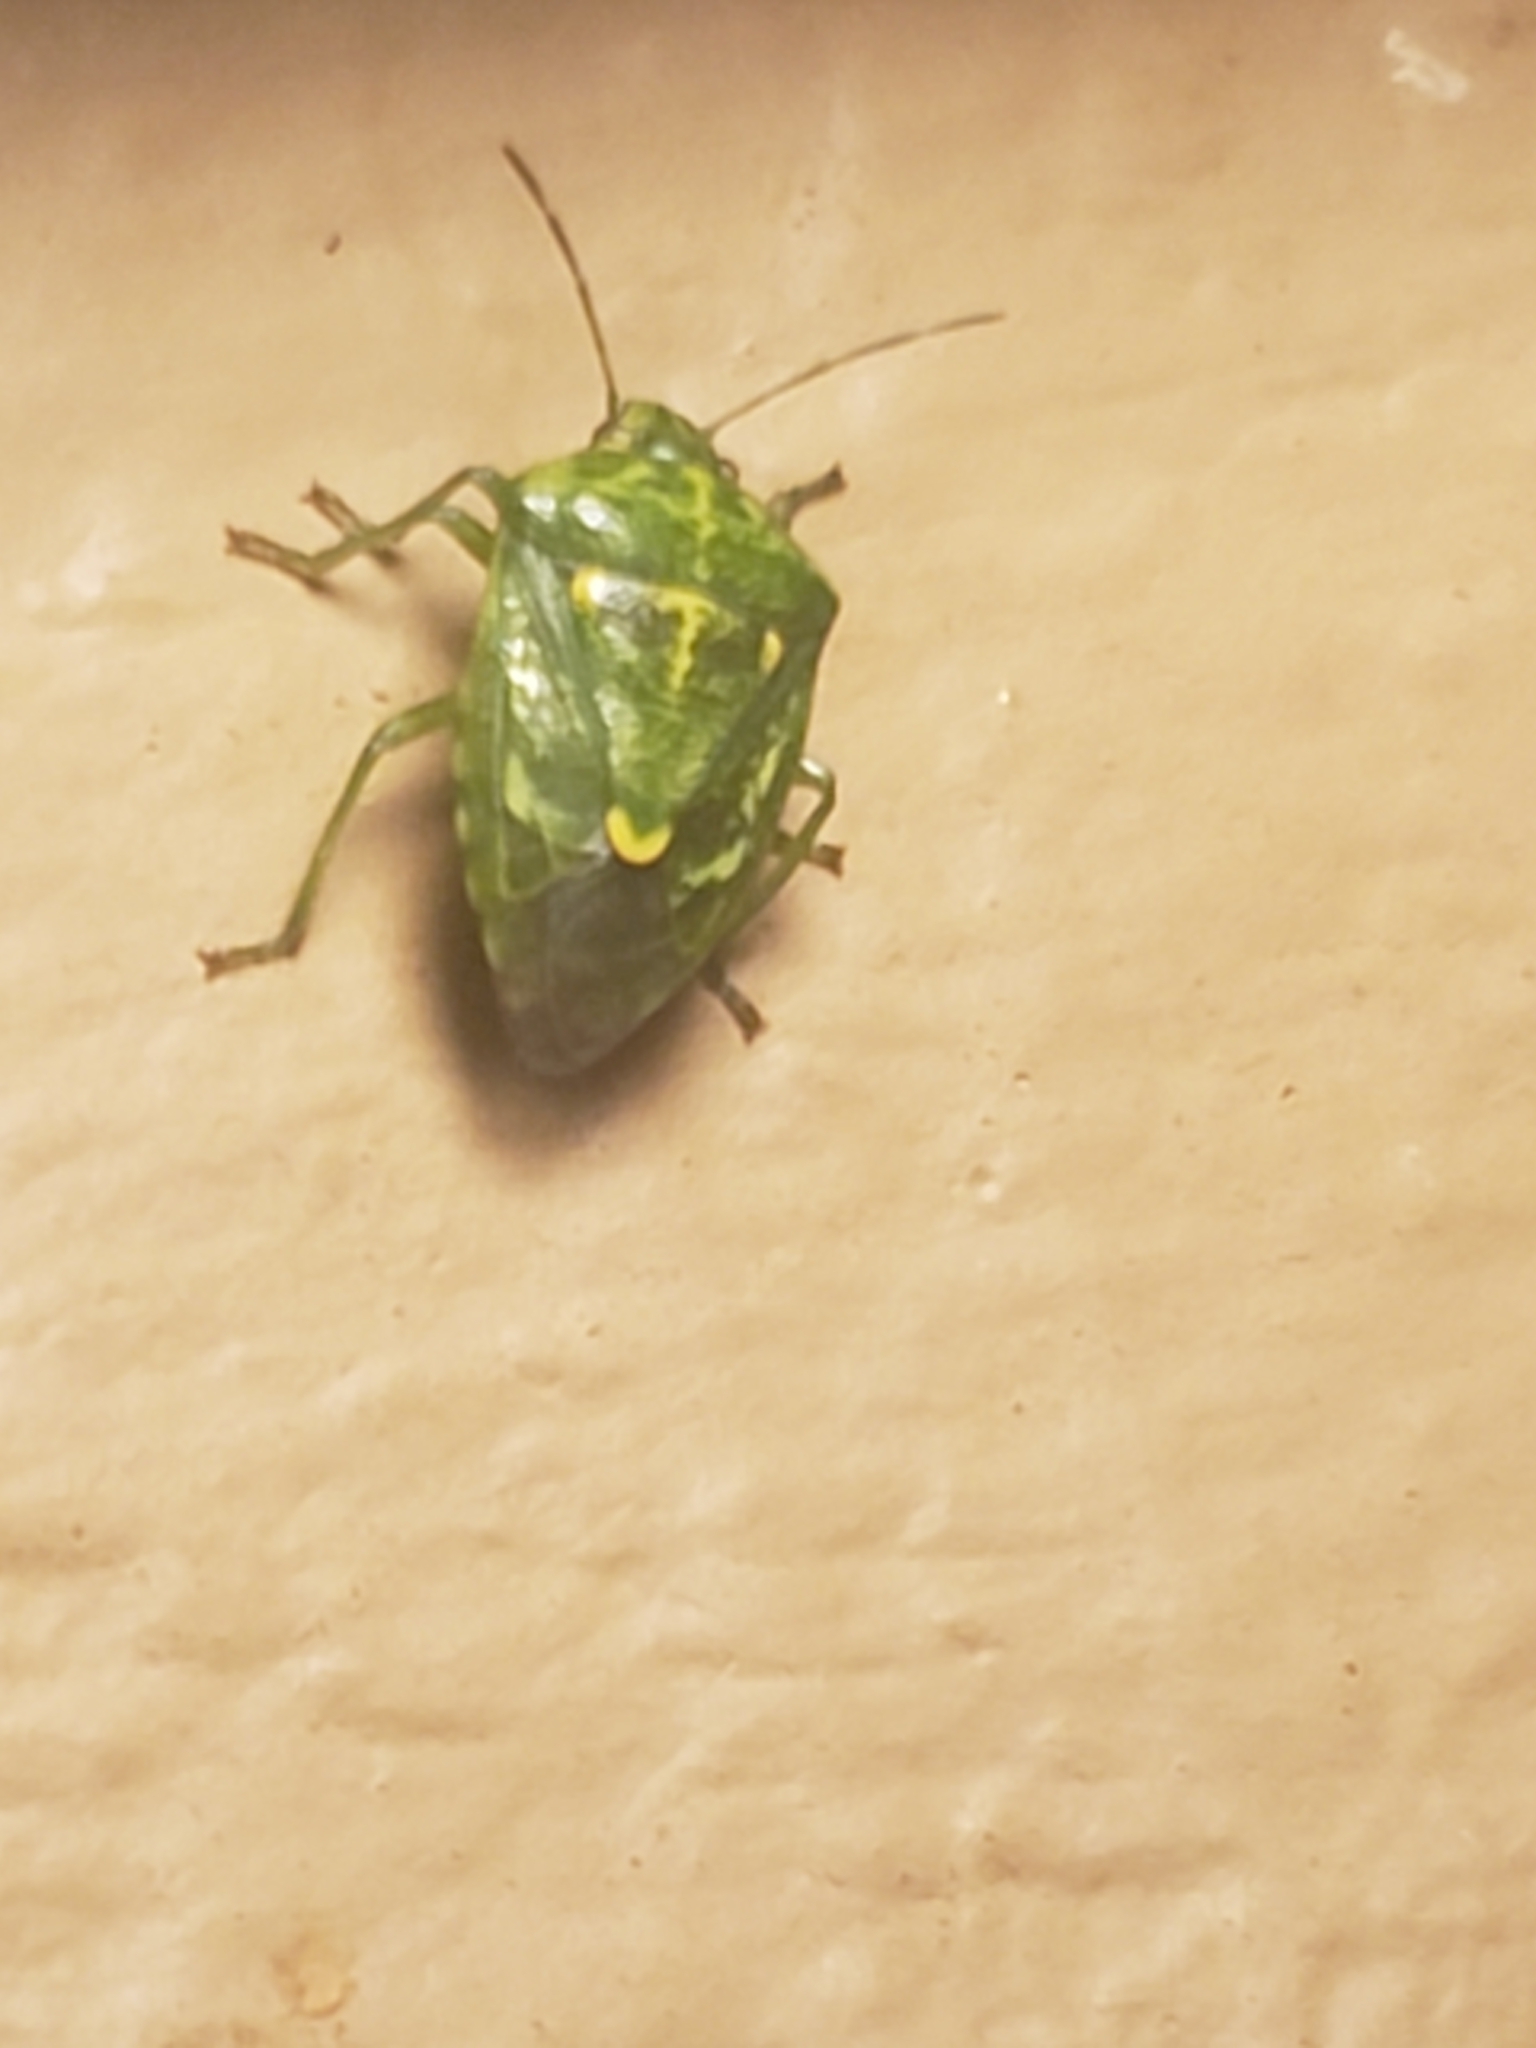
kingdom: Animalia
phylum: Arthropoda
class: Insecta
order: Hemiptera
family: Pentatomidae
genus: Banasa
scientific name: Banasa euchlora
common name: Cedar berry bug
